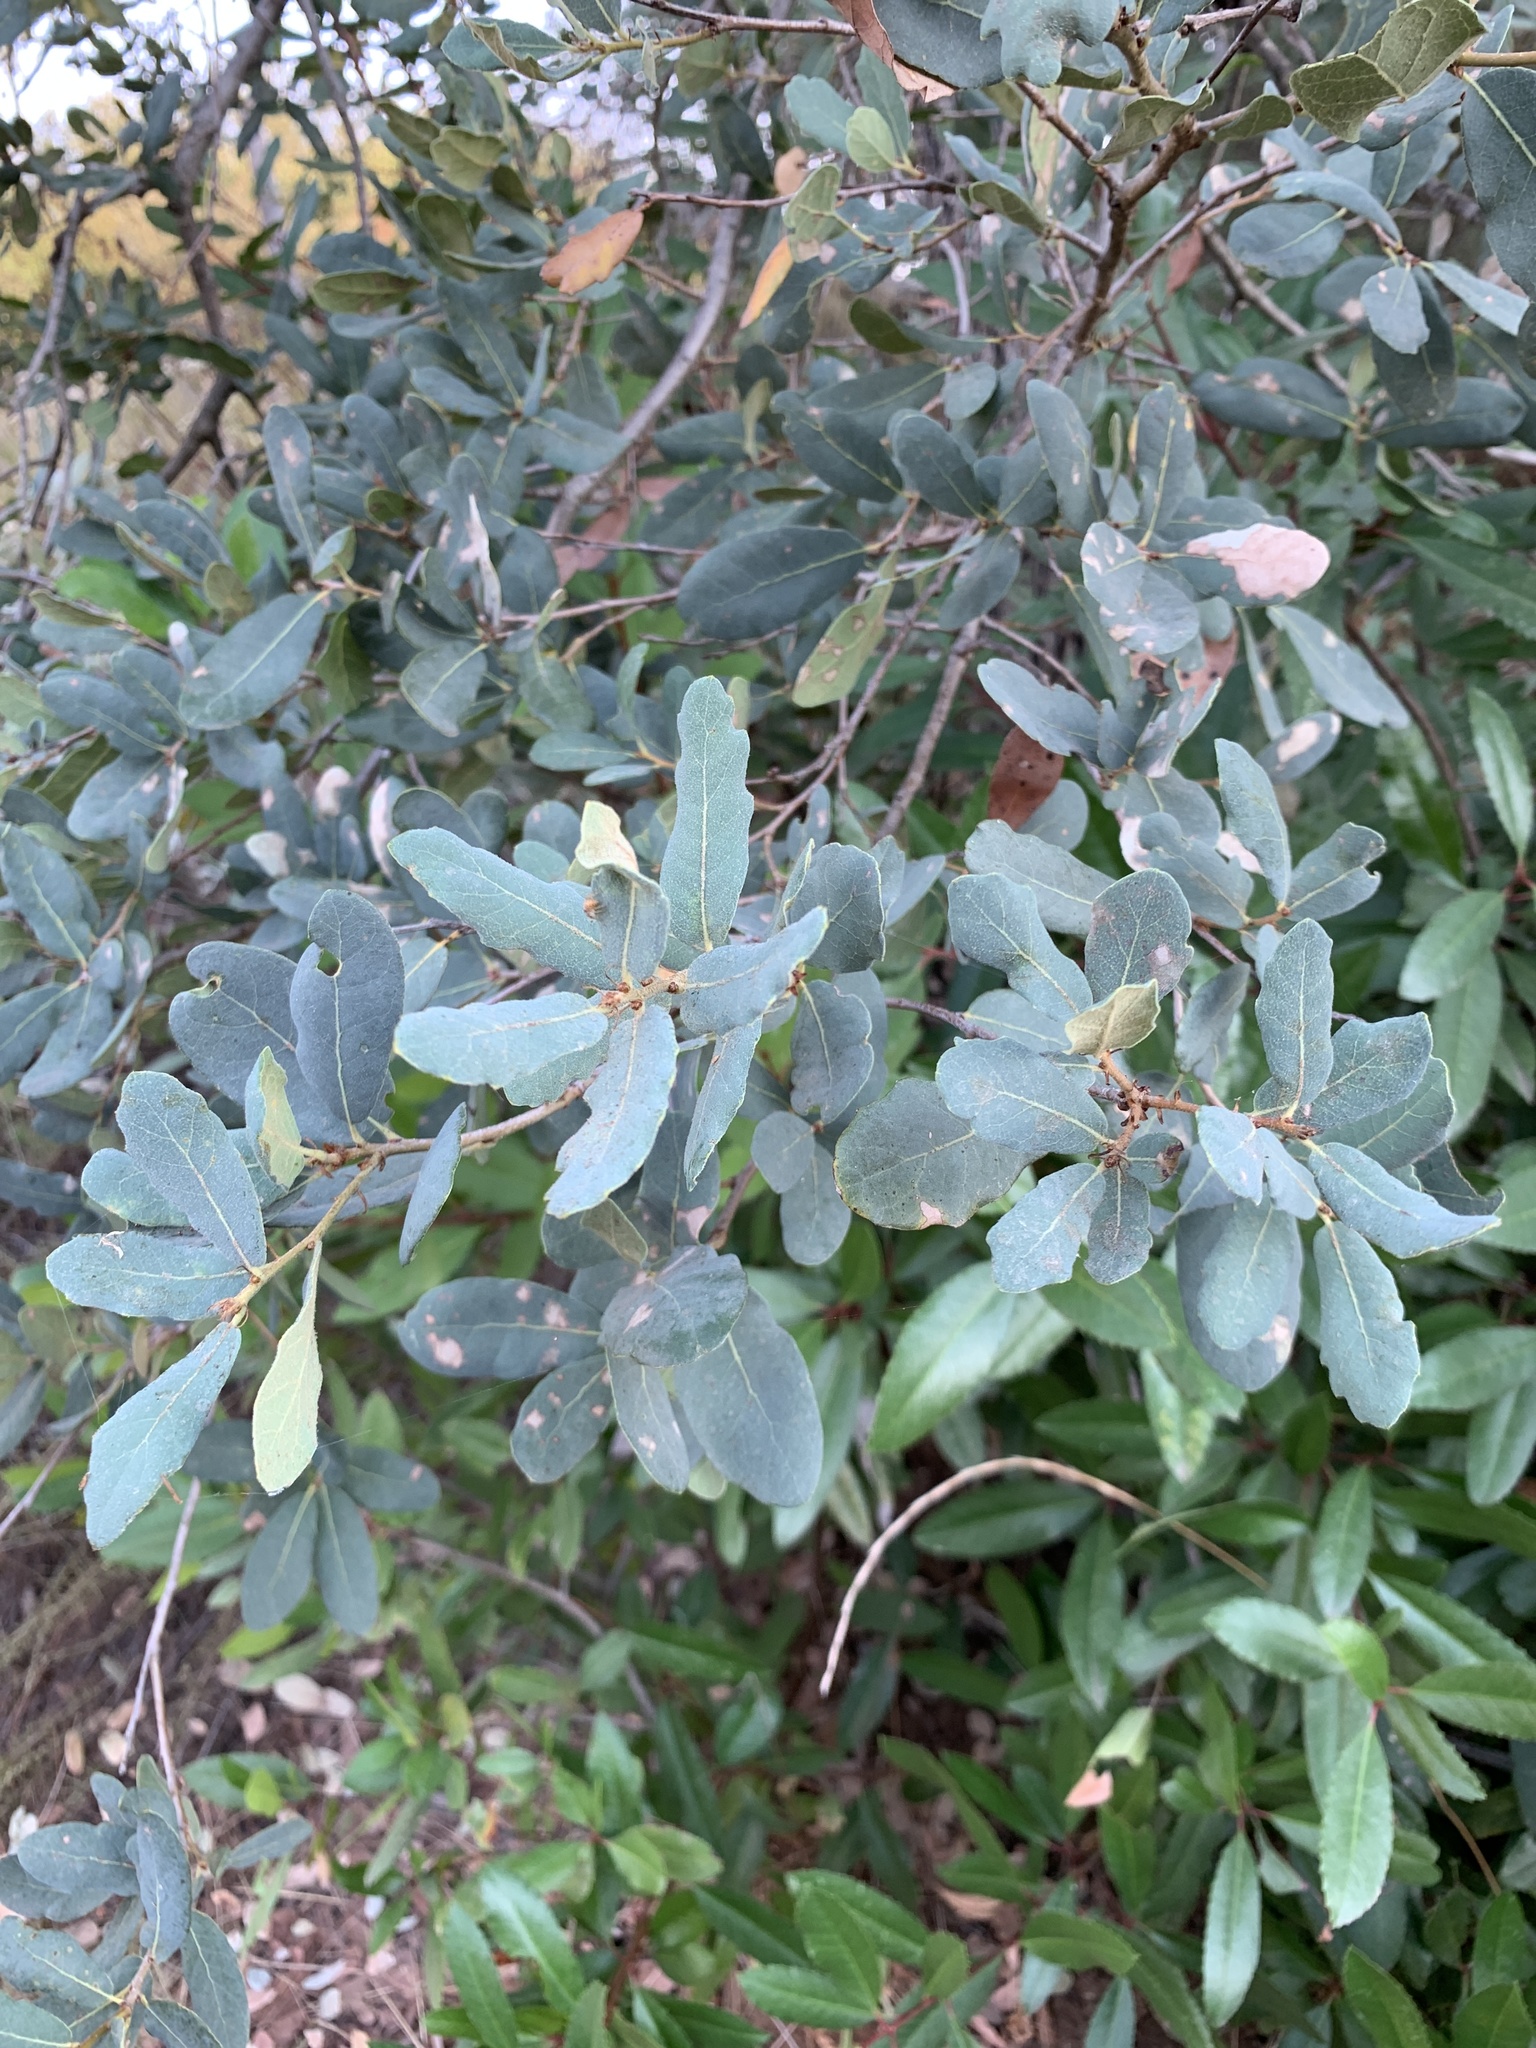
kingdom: Plantae
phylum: Tracheophyta
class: Magnoliopsida
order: Fagales
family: Fagaceae
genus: Quercus
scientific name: Quercus engelmannii
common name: Engelmann oak
